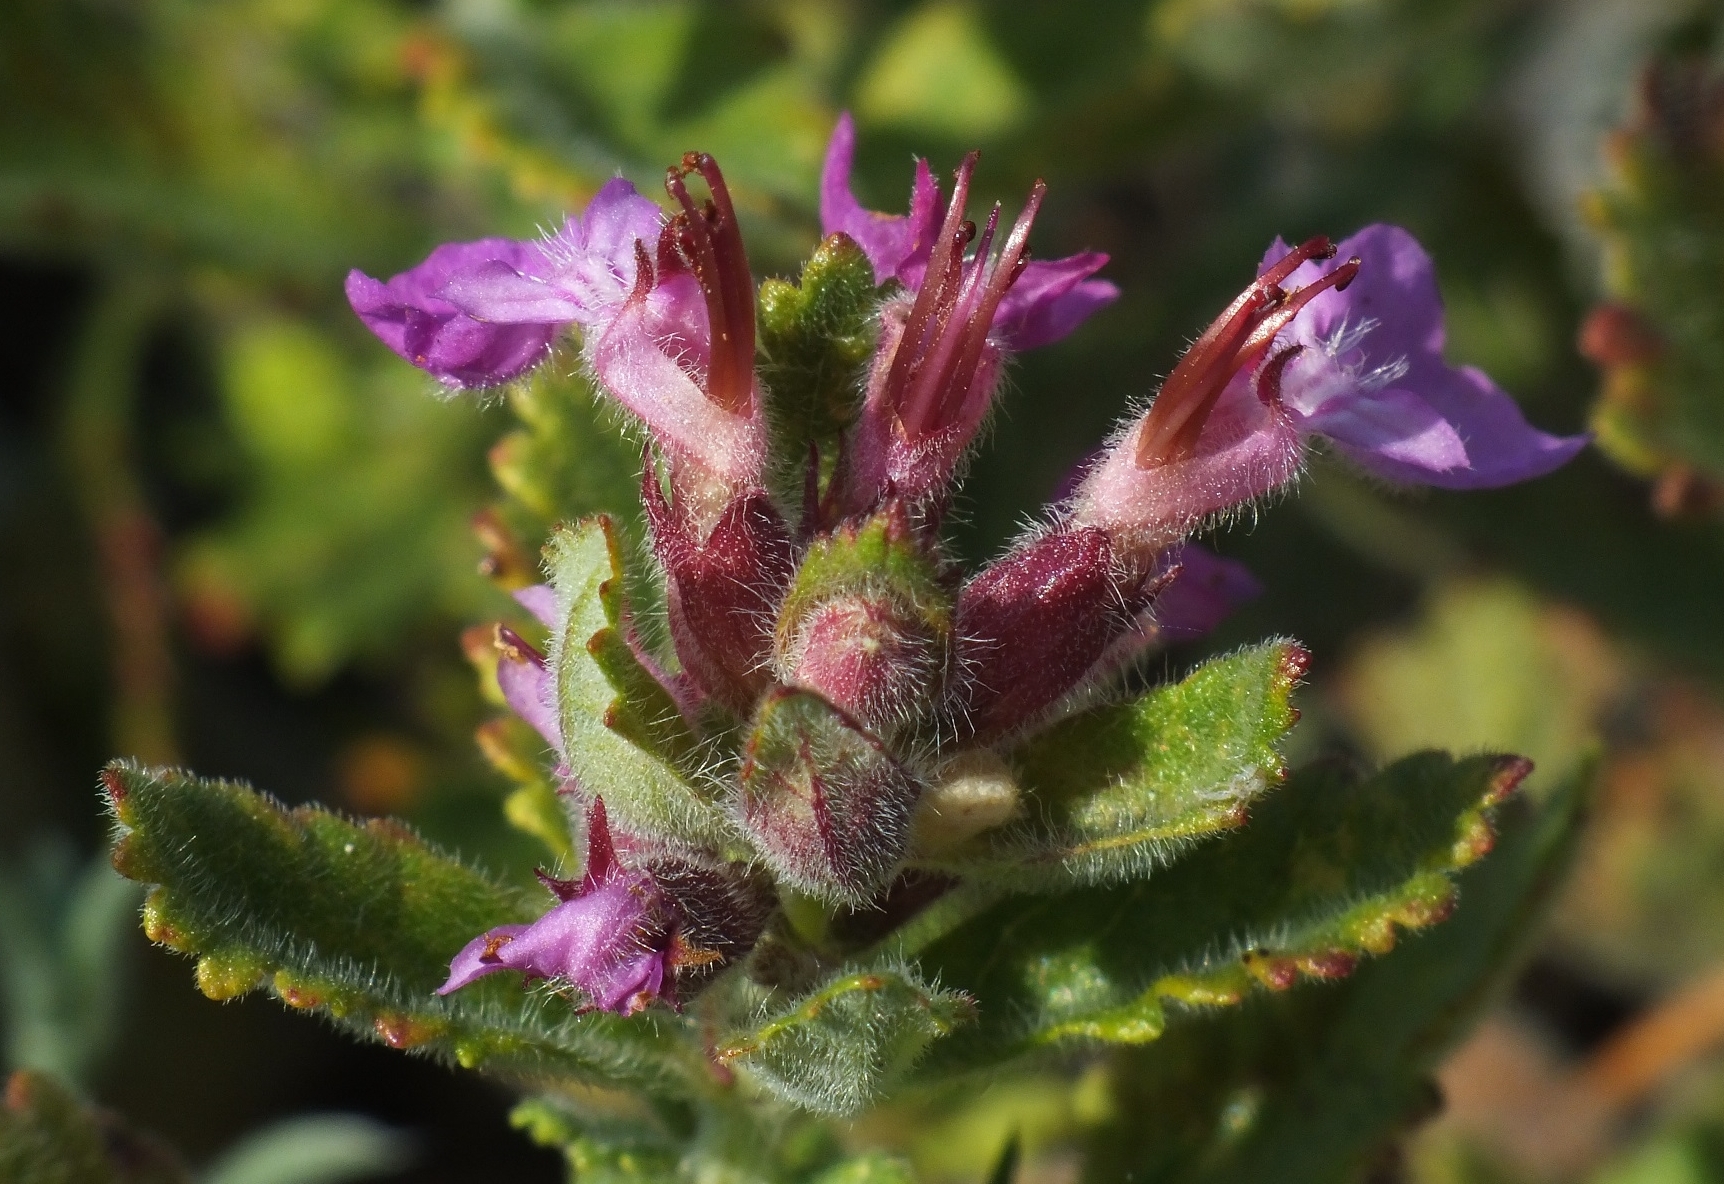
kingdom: Plantae
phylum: Tracheophyta
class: Magnoliopsida
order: Lamiales
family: Lamiaceae
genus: Teucrium
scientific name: Teucrium chamaedrys
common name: Wall germander
